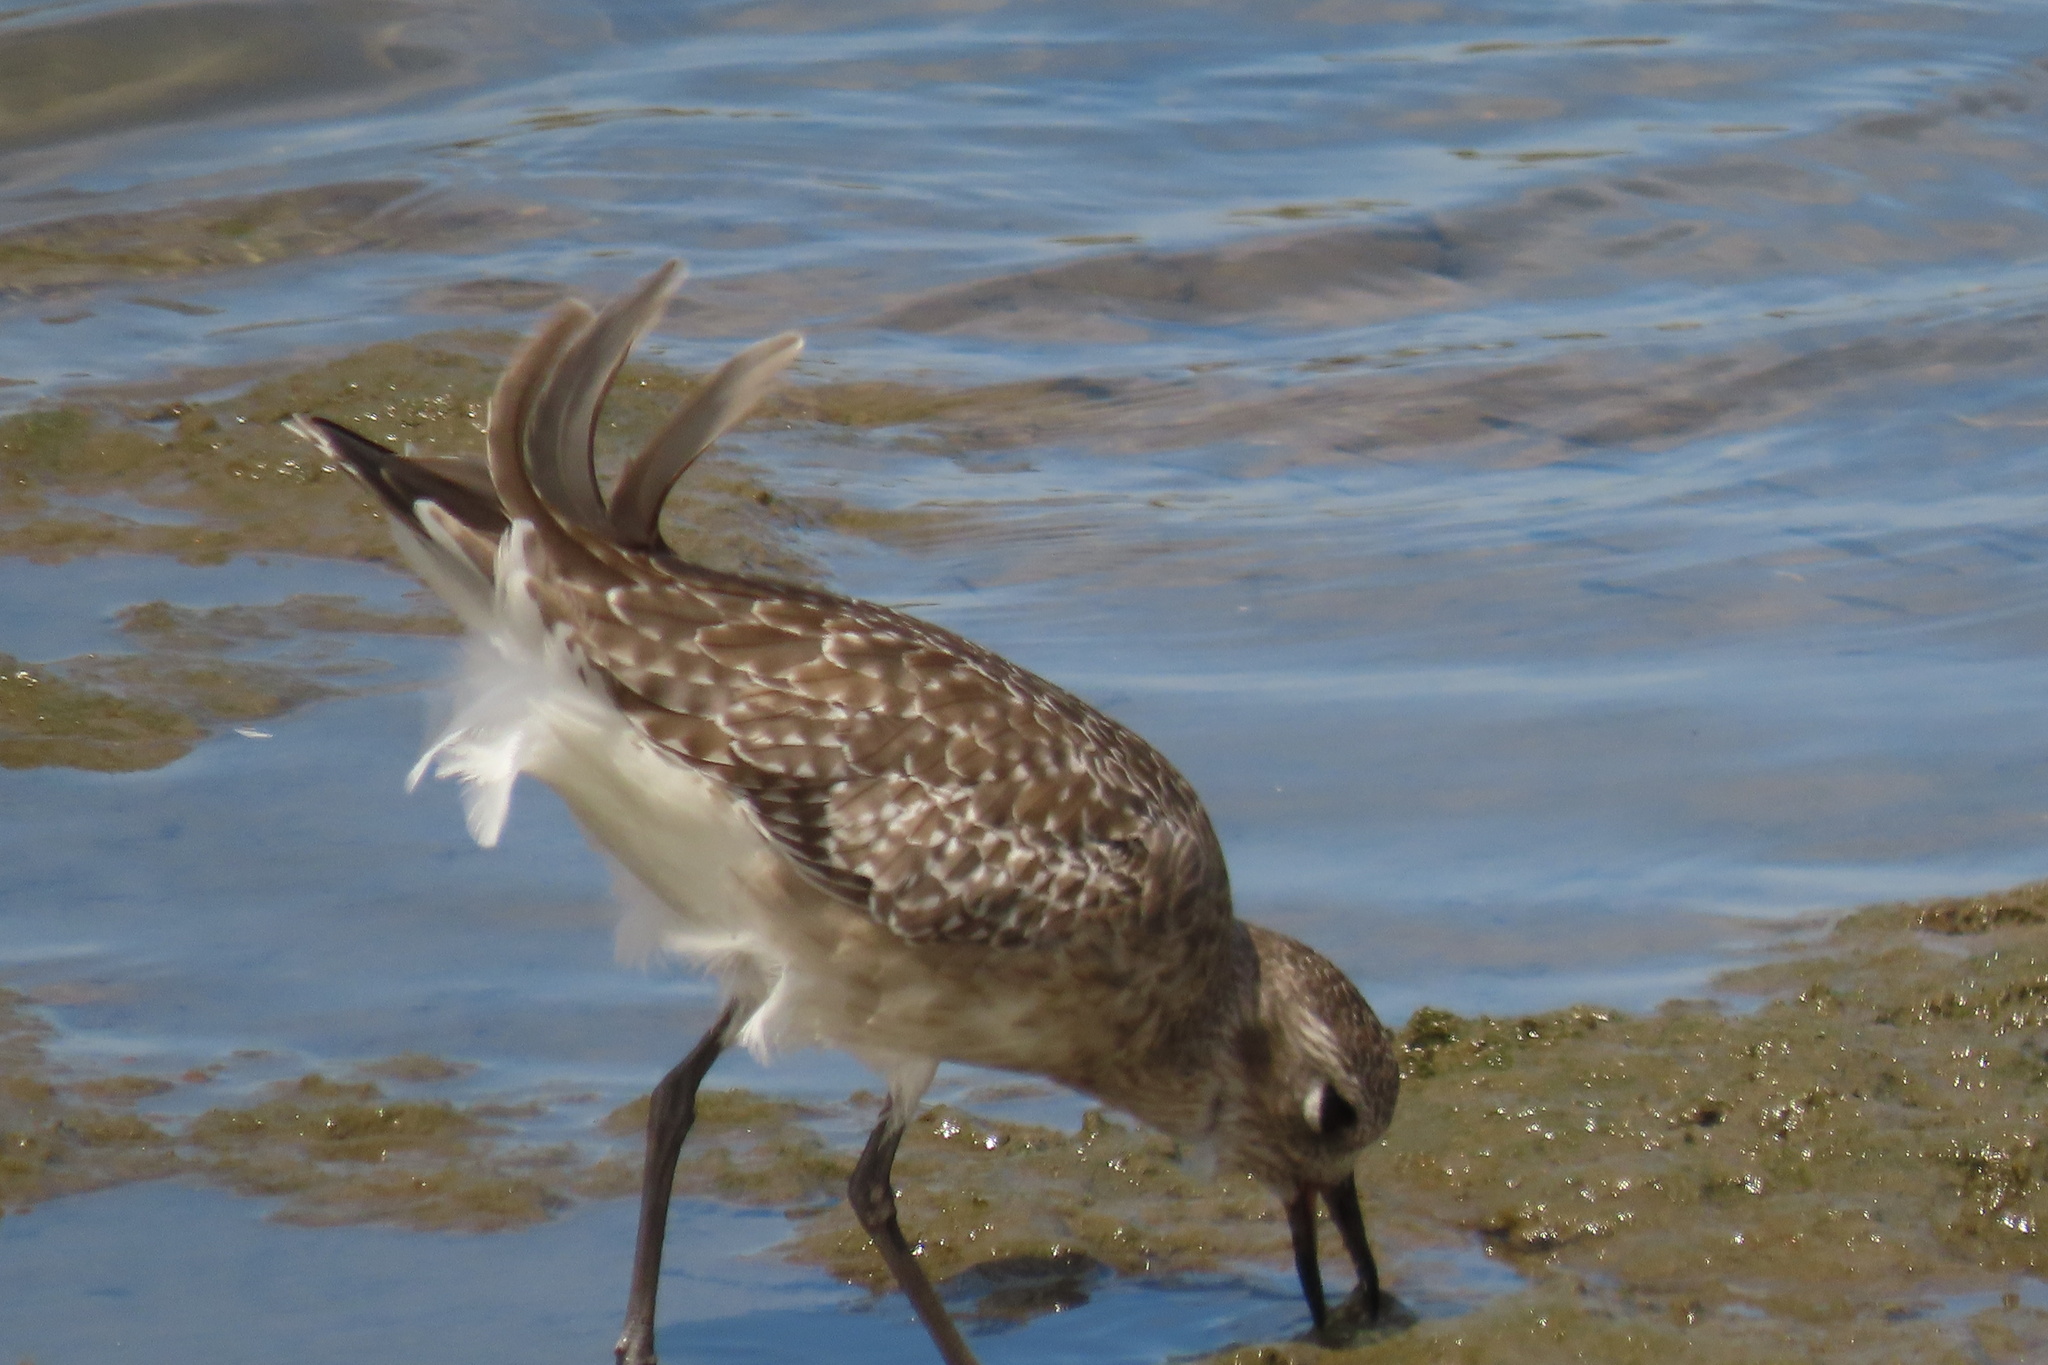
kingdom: Animalia
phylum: Chordata
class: Aves
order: Charadriiformes
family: Charadriidae
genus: Pluvialis
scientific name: Pluvialis squatarola
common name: Grey plover
